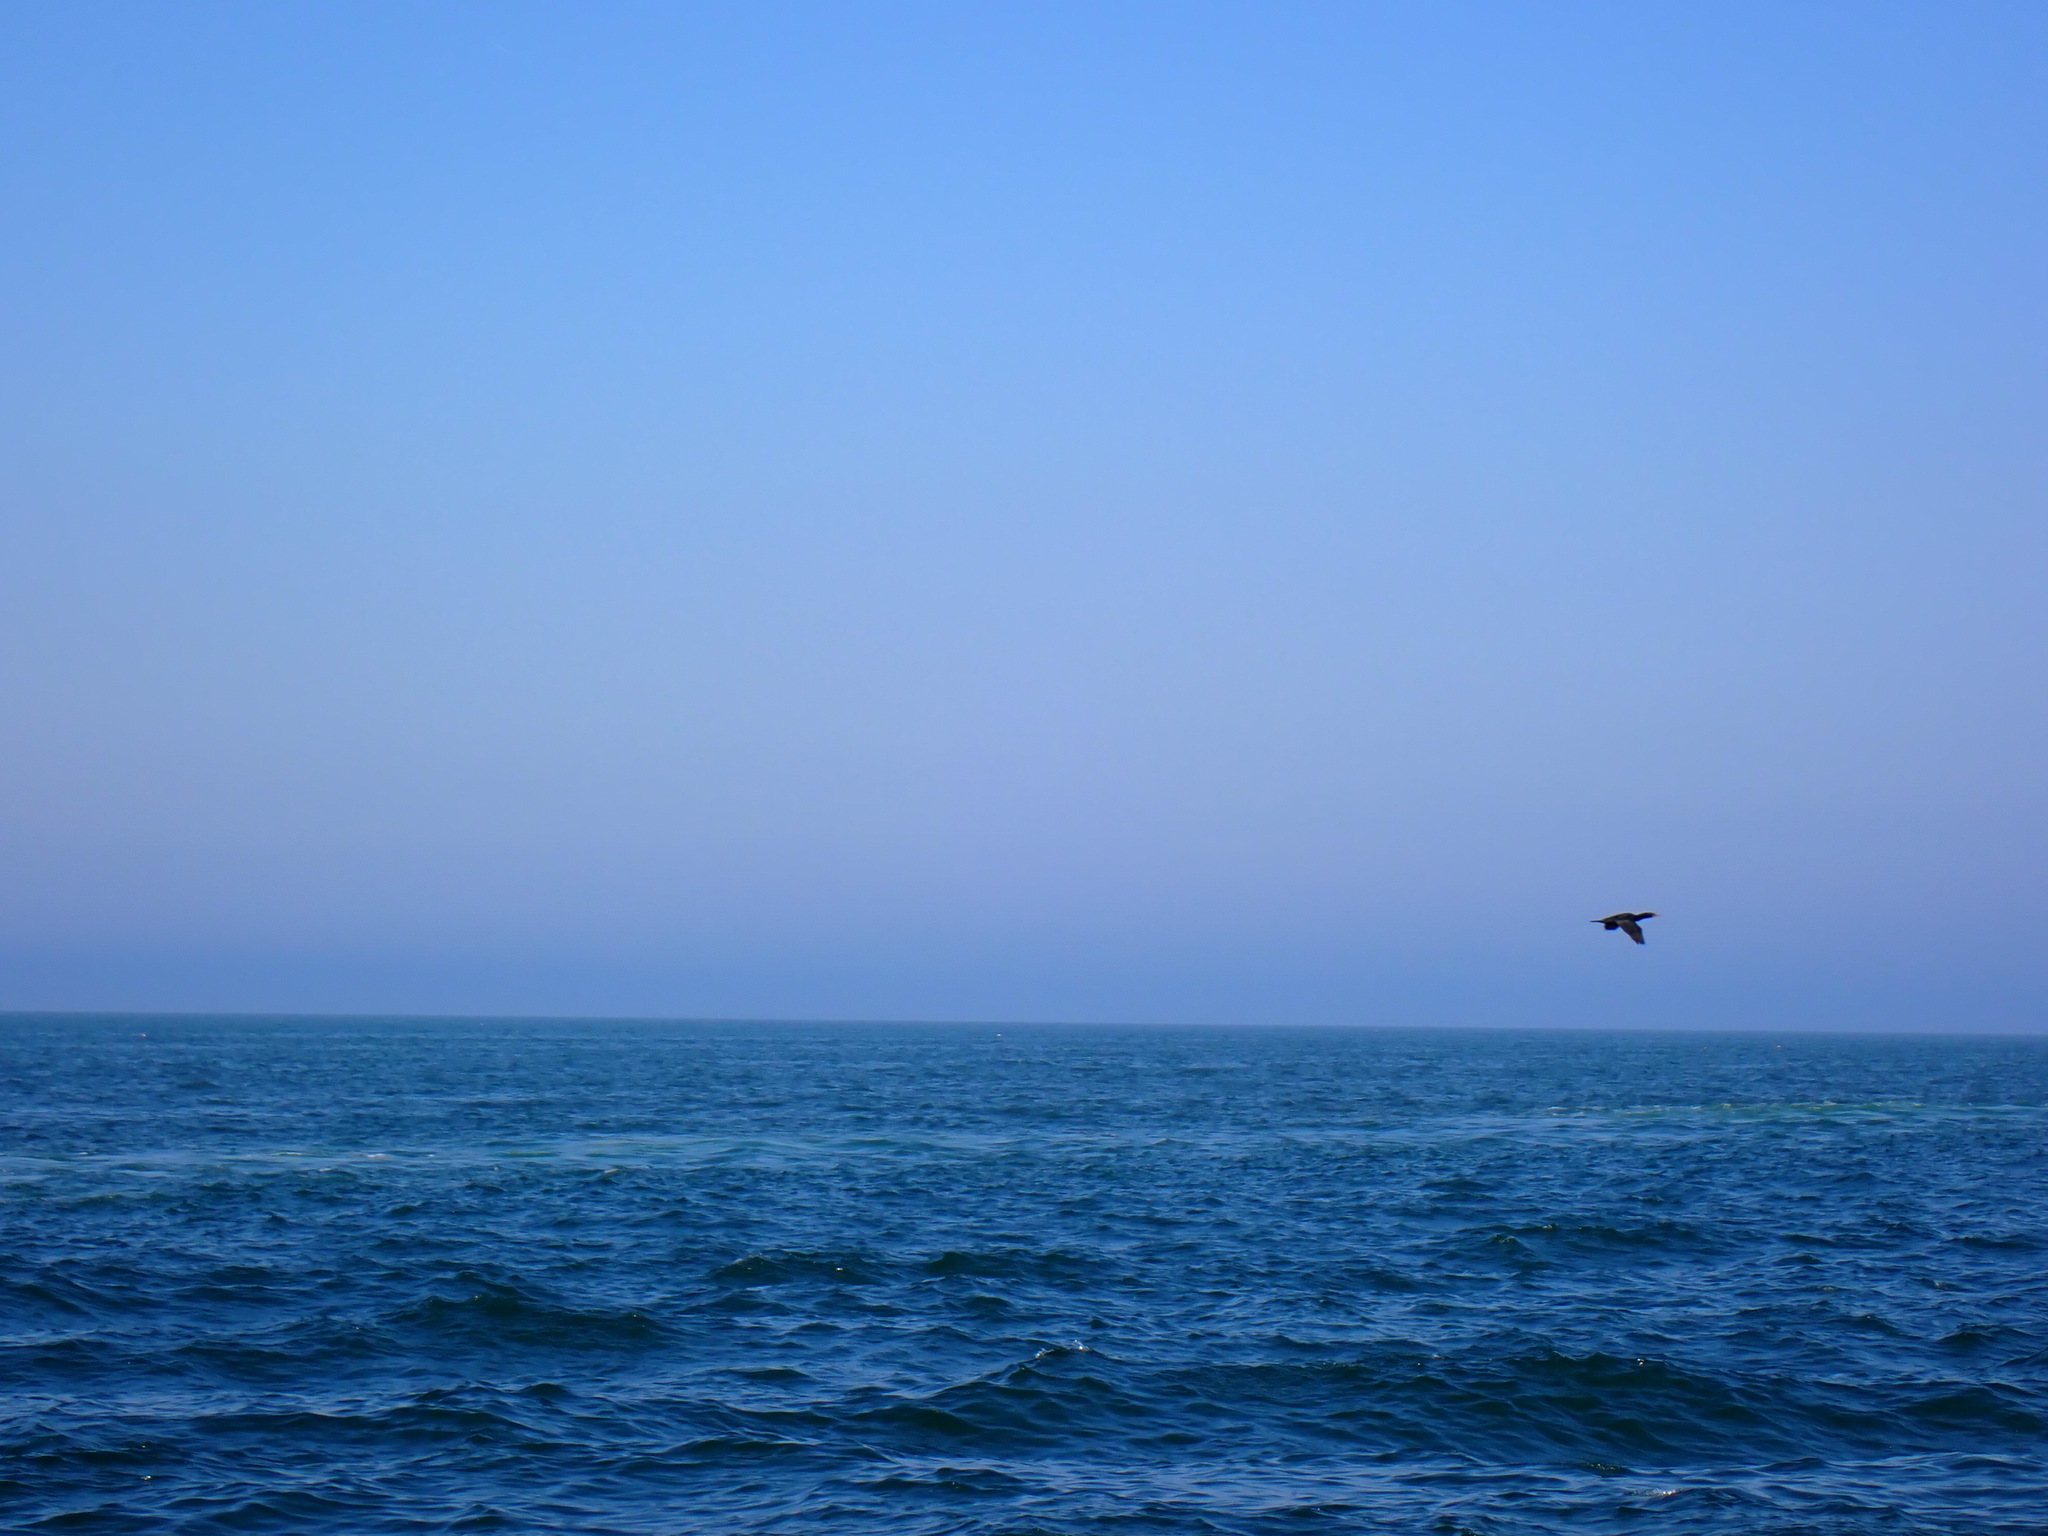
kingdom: Animalia
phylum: Chordata
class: Aves
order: Suliformes
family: Phalacrocoracidae
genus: Phalacrocorax
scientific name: Phalacrocorax auritus
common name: Double-crested cormorant
